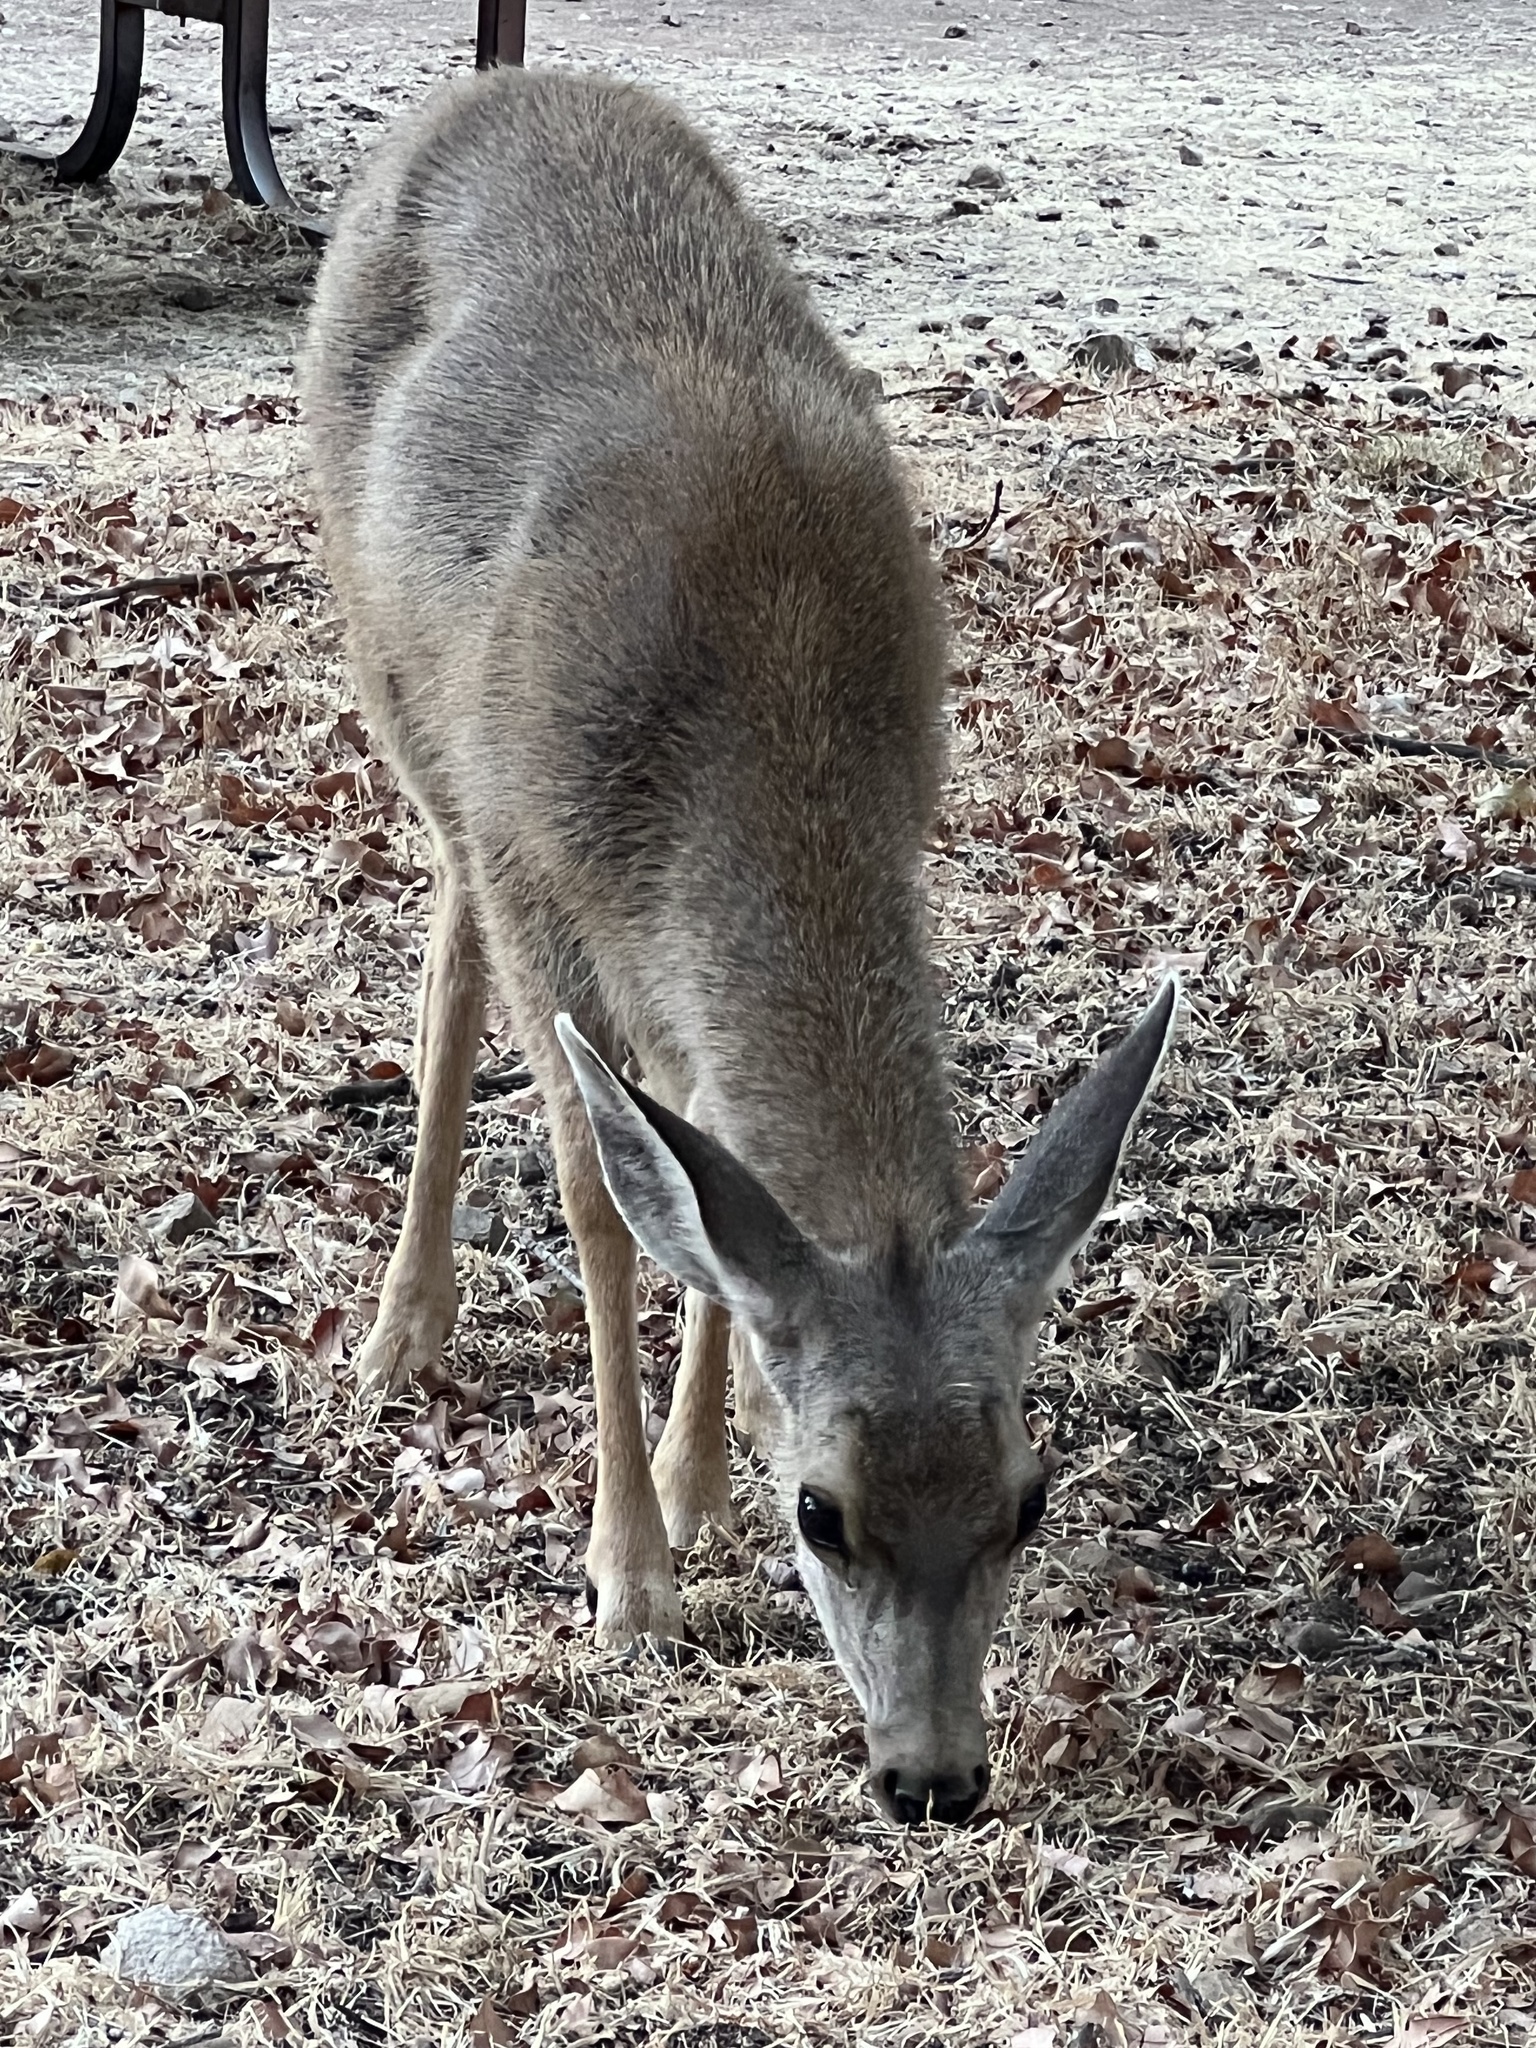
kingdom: Animalia
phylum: Chordata
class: Mammalia
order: Artiodactyla
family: Cervidae
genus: Odocoileus
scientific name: Odocoileus hemionus
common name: Mule deer
